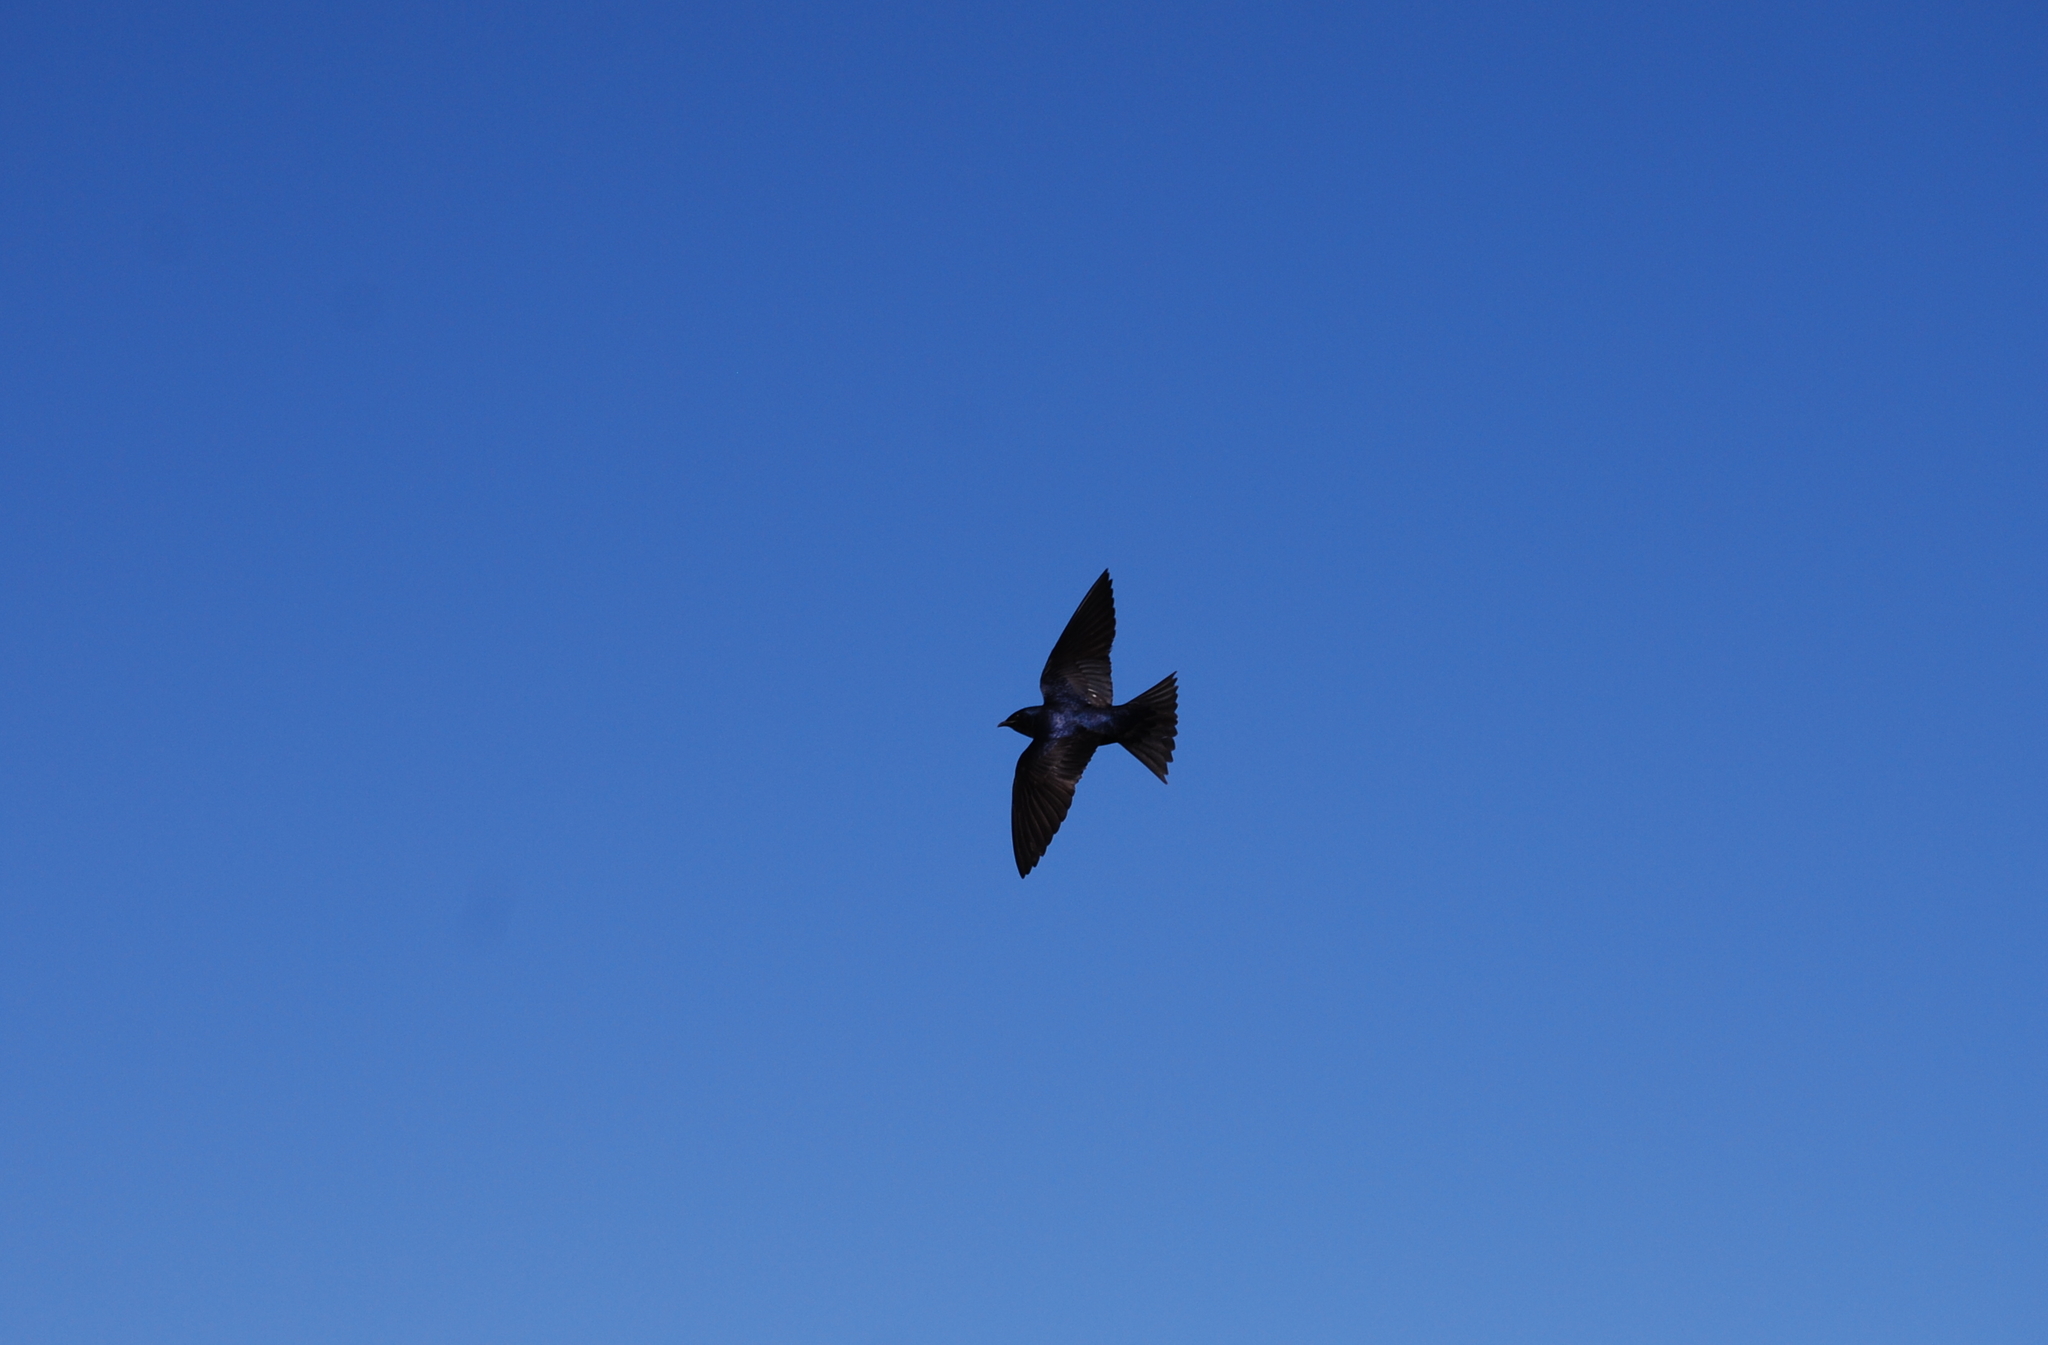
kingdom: Animalia
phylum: Chordata
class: Aves
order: Passeriformes
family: Hirundinidae
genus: Progne
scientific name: Progne subis
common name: Purple martin
